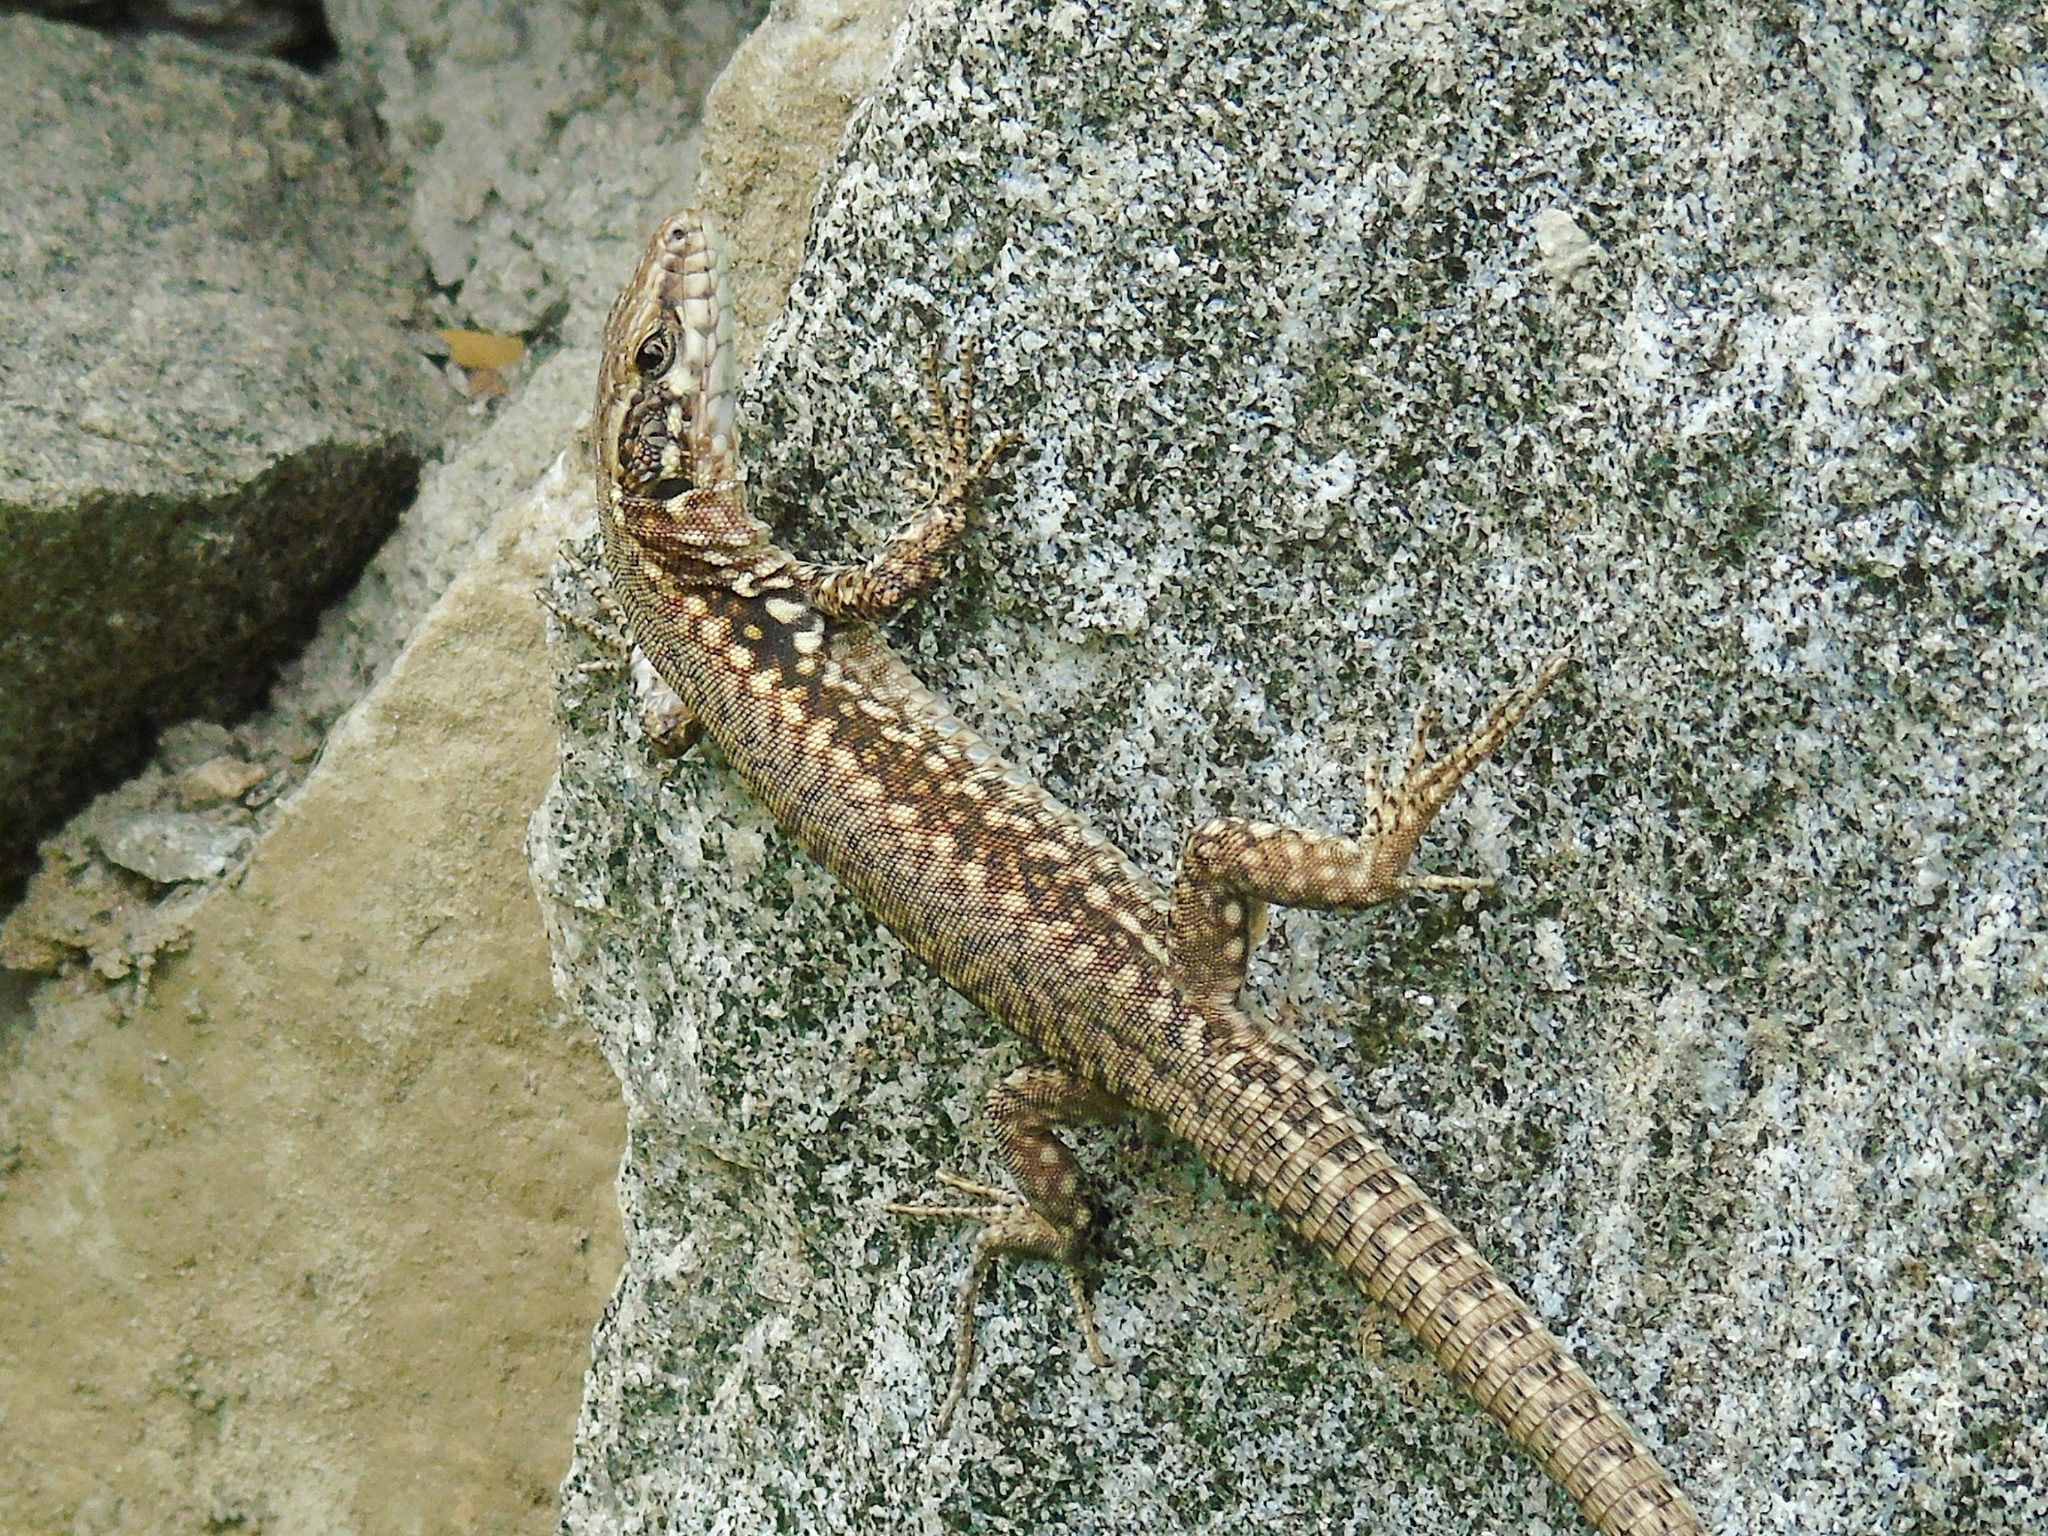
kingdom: Animalia
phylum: Chordata
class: Squamata
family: Lacertidae
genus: Podarcis
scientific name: Podarcis muralis
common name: Common wall lizard
